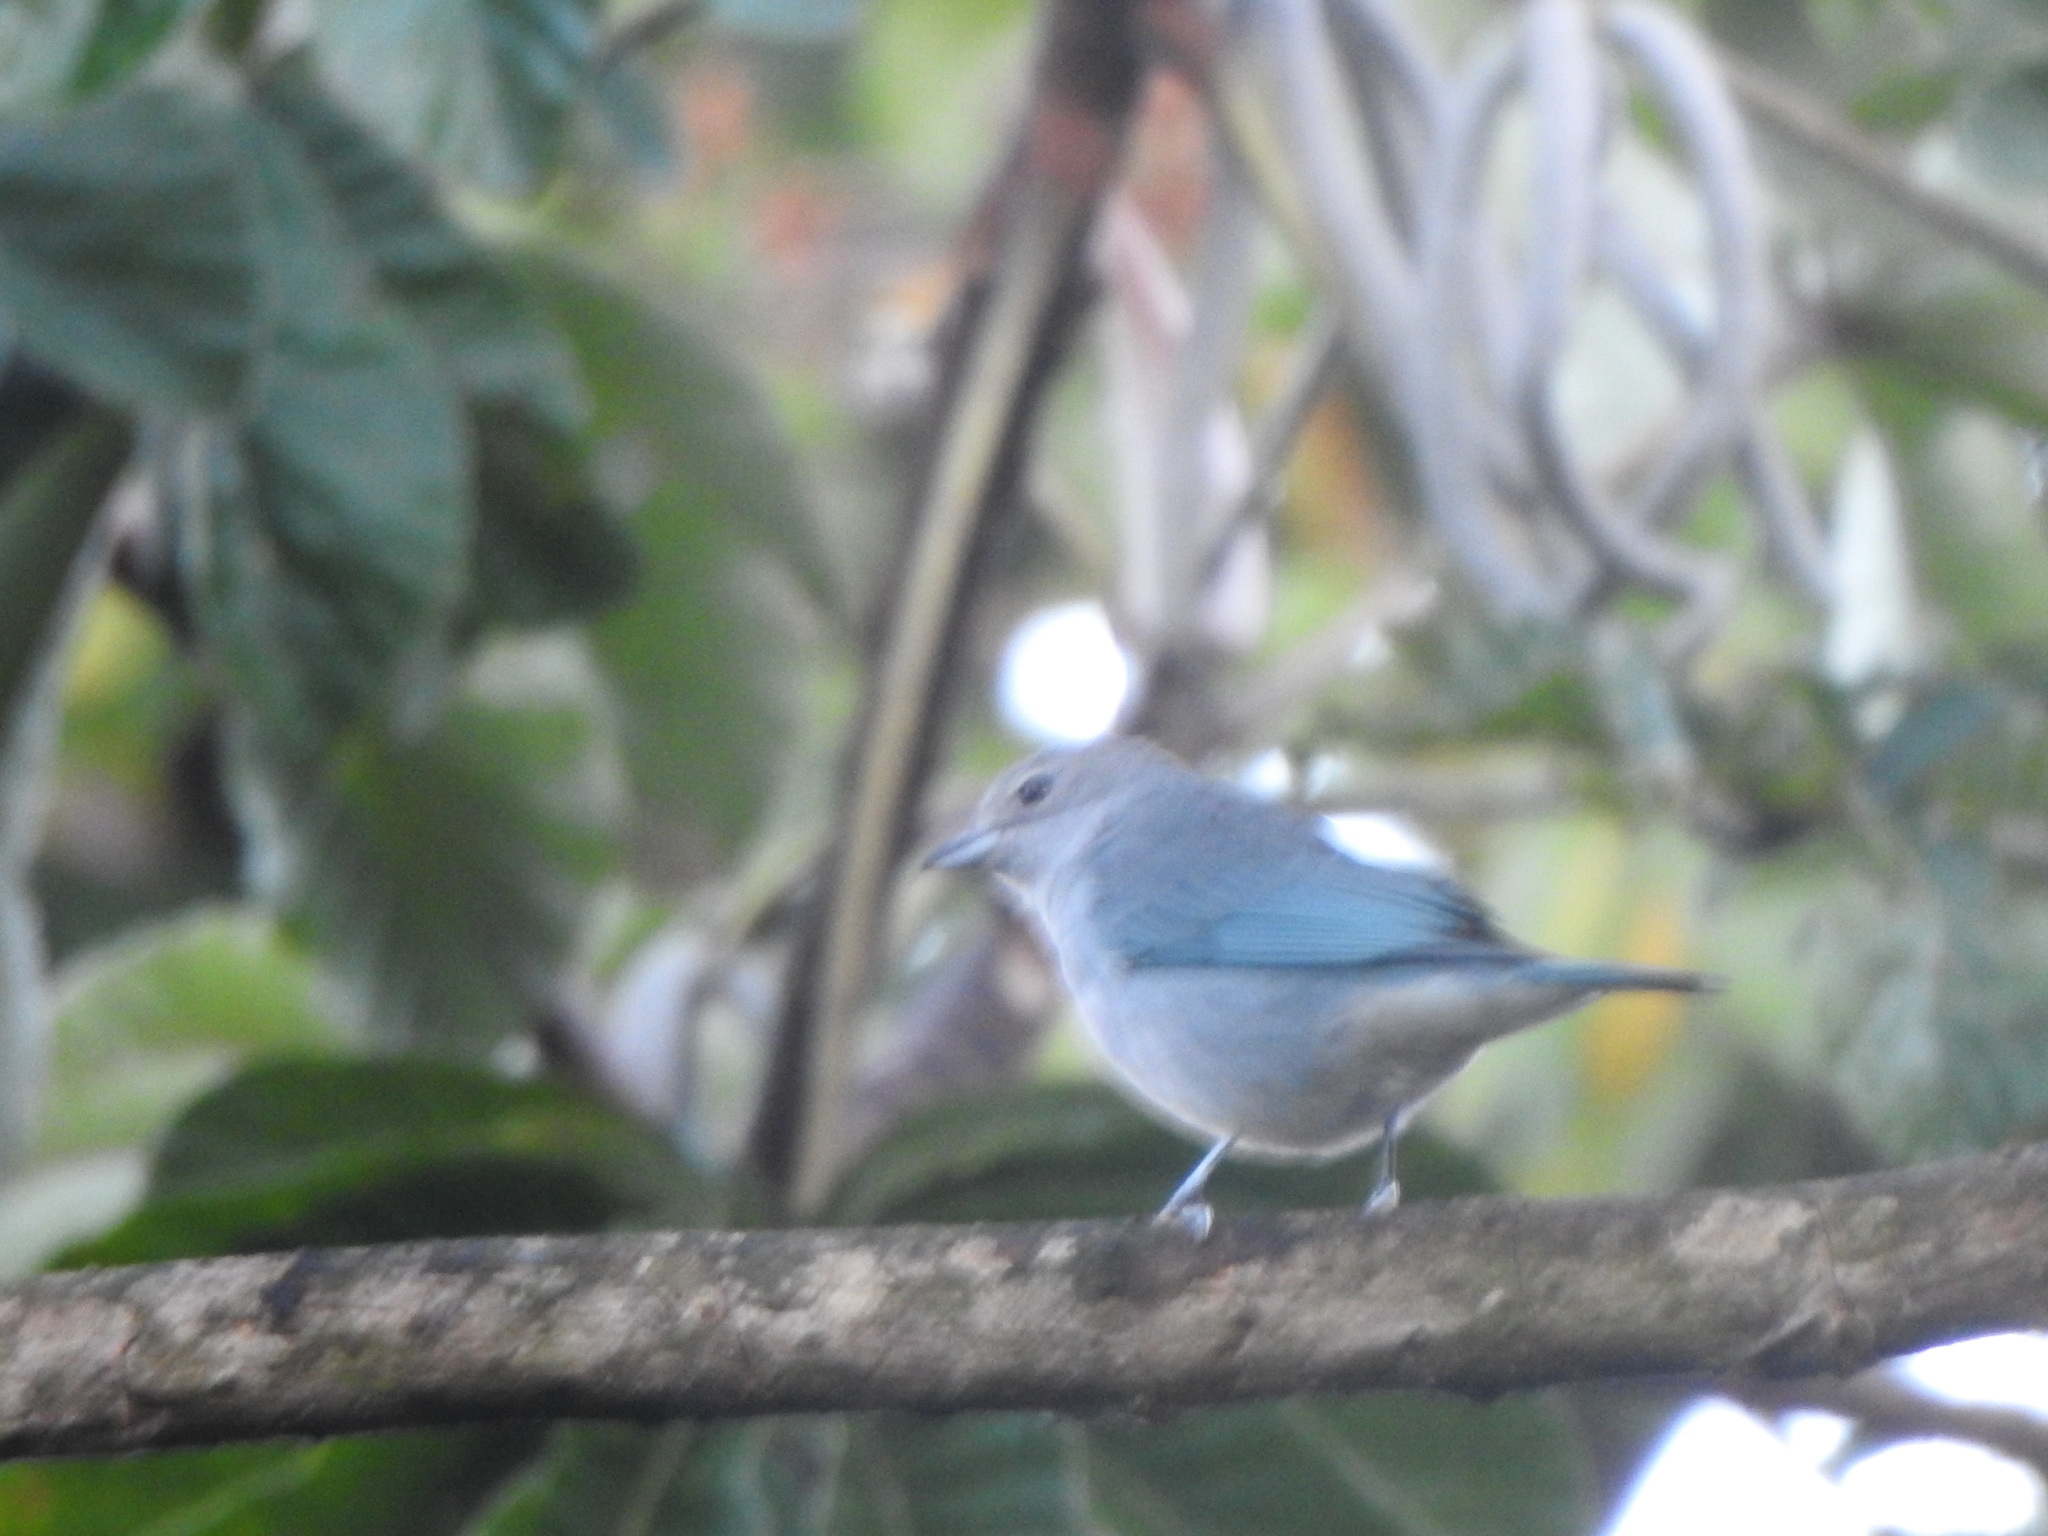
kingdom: Animalia
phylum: Chordata
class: Aves
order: Passeriformes
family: Thraupidae
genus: Thraupis
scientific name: Thraupis sayaca
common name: Sayaca tanager
